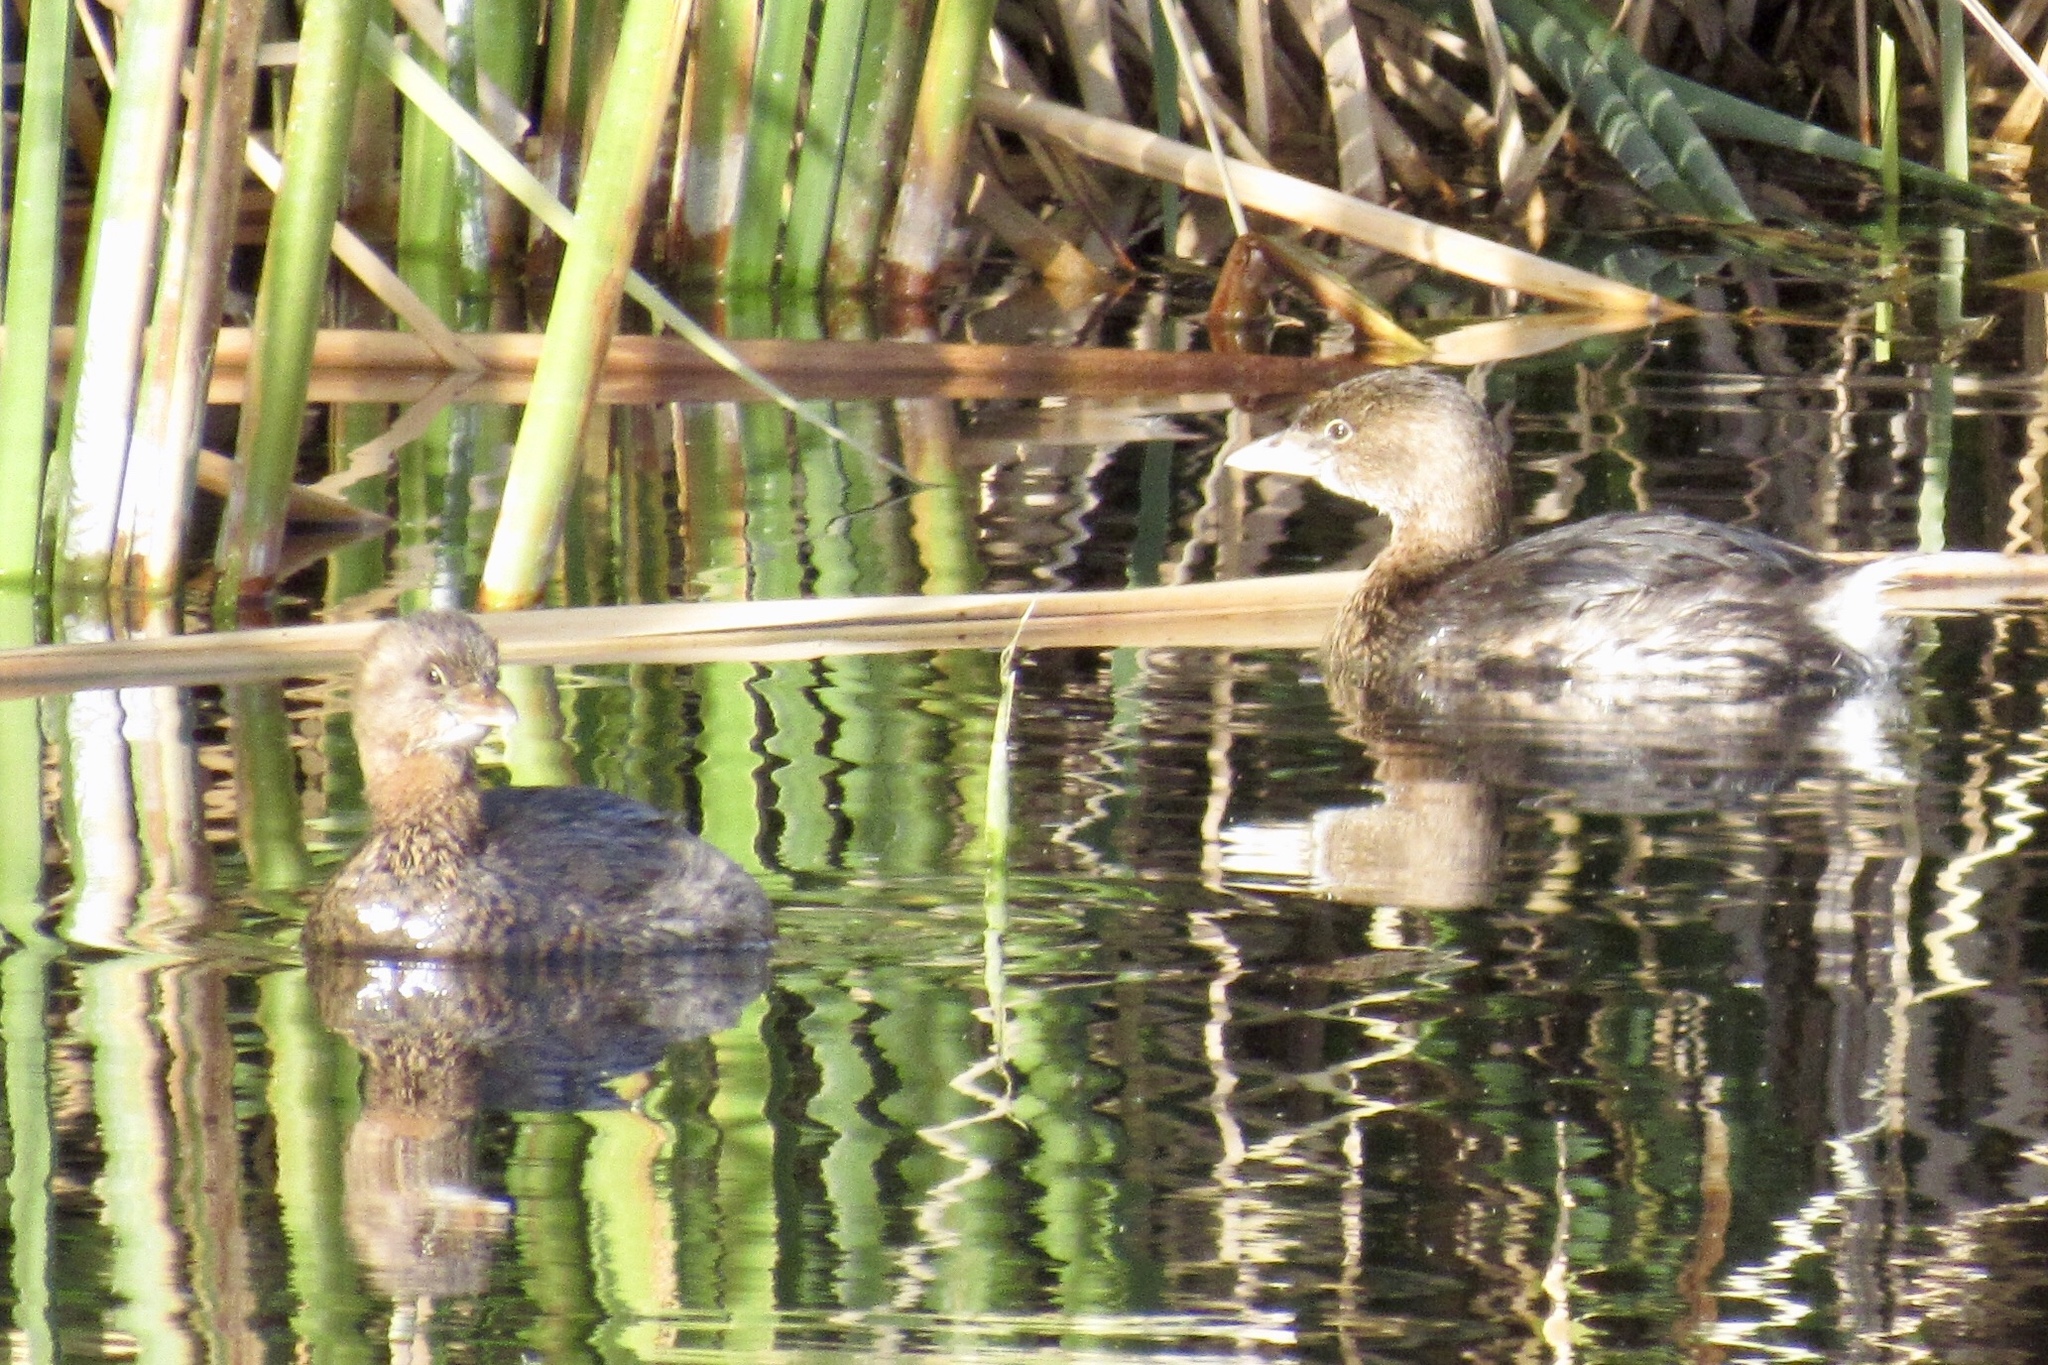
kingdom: Animalia
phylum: Chordata
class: Aves
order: Podicipediformes
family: Podicipedidae
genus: Podilymbus
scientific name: Podilymbus podiceps
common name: Pied-billed grebe
